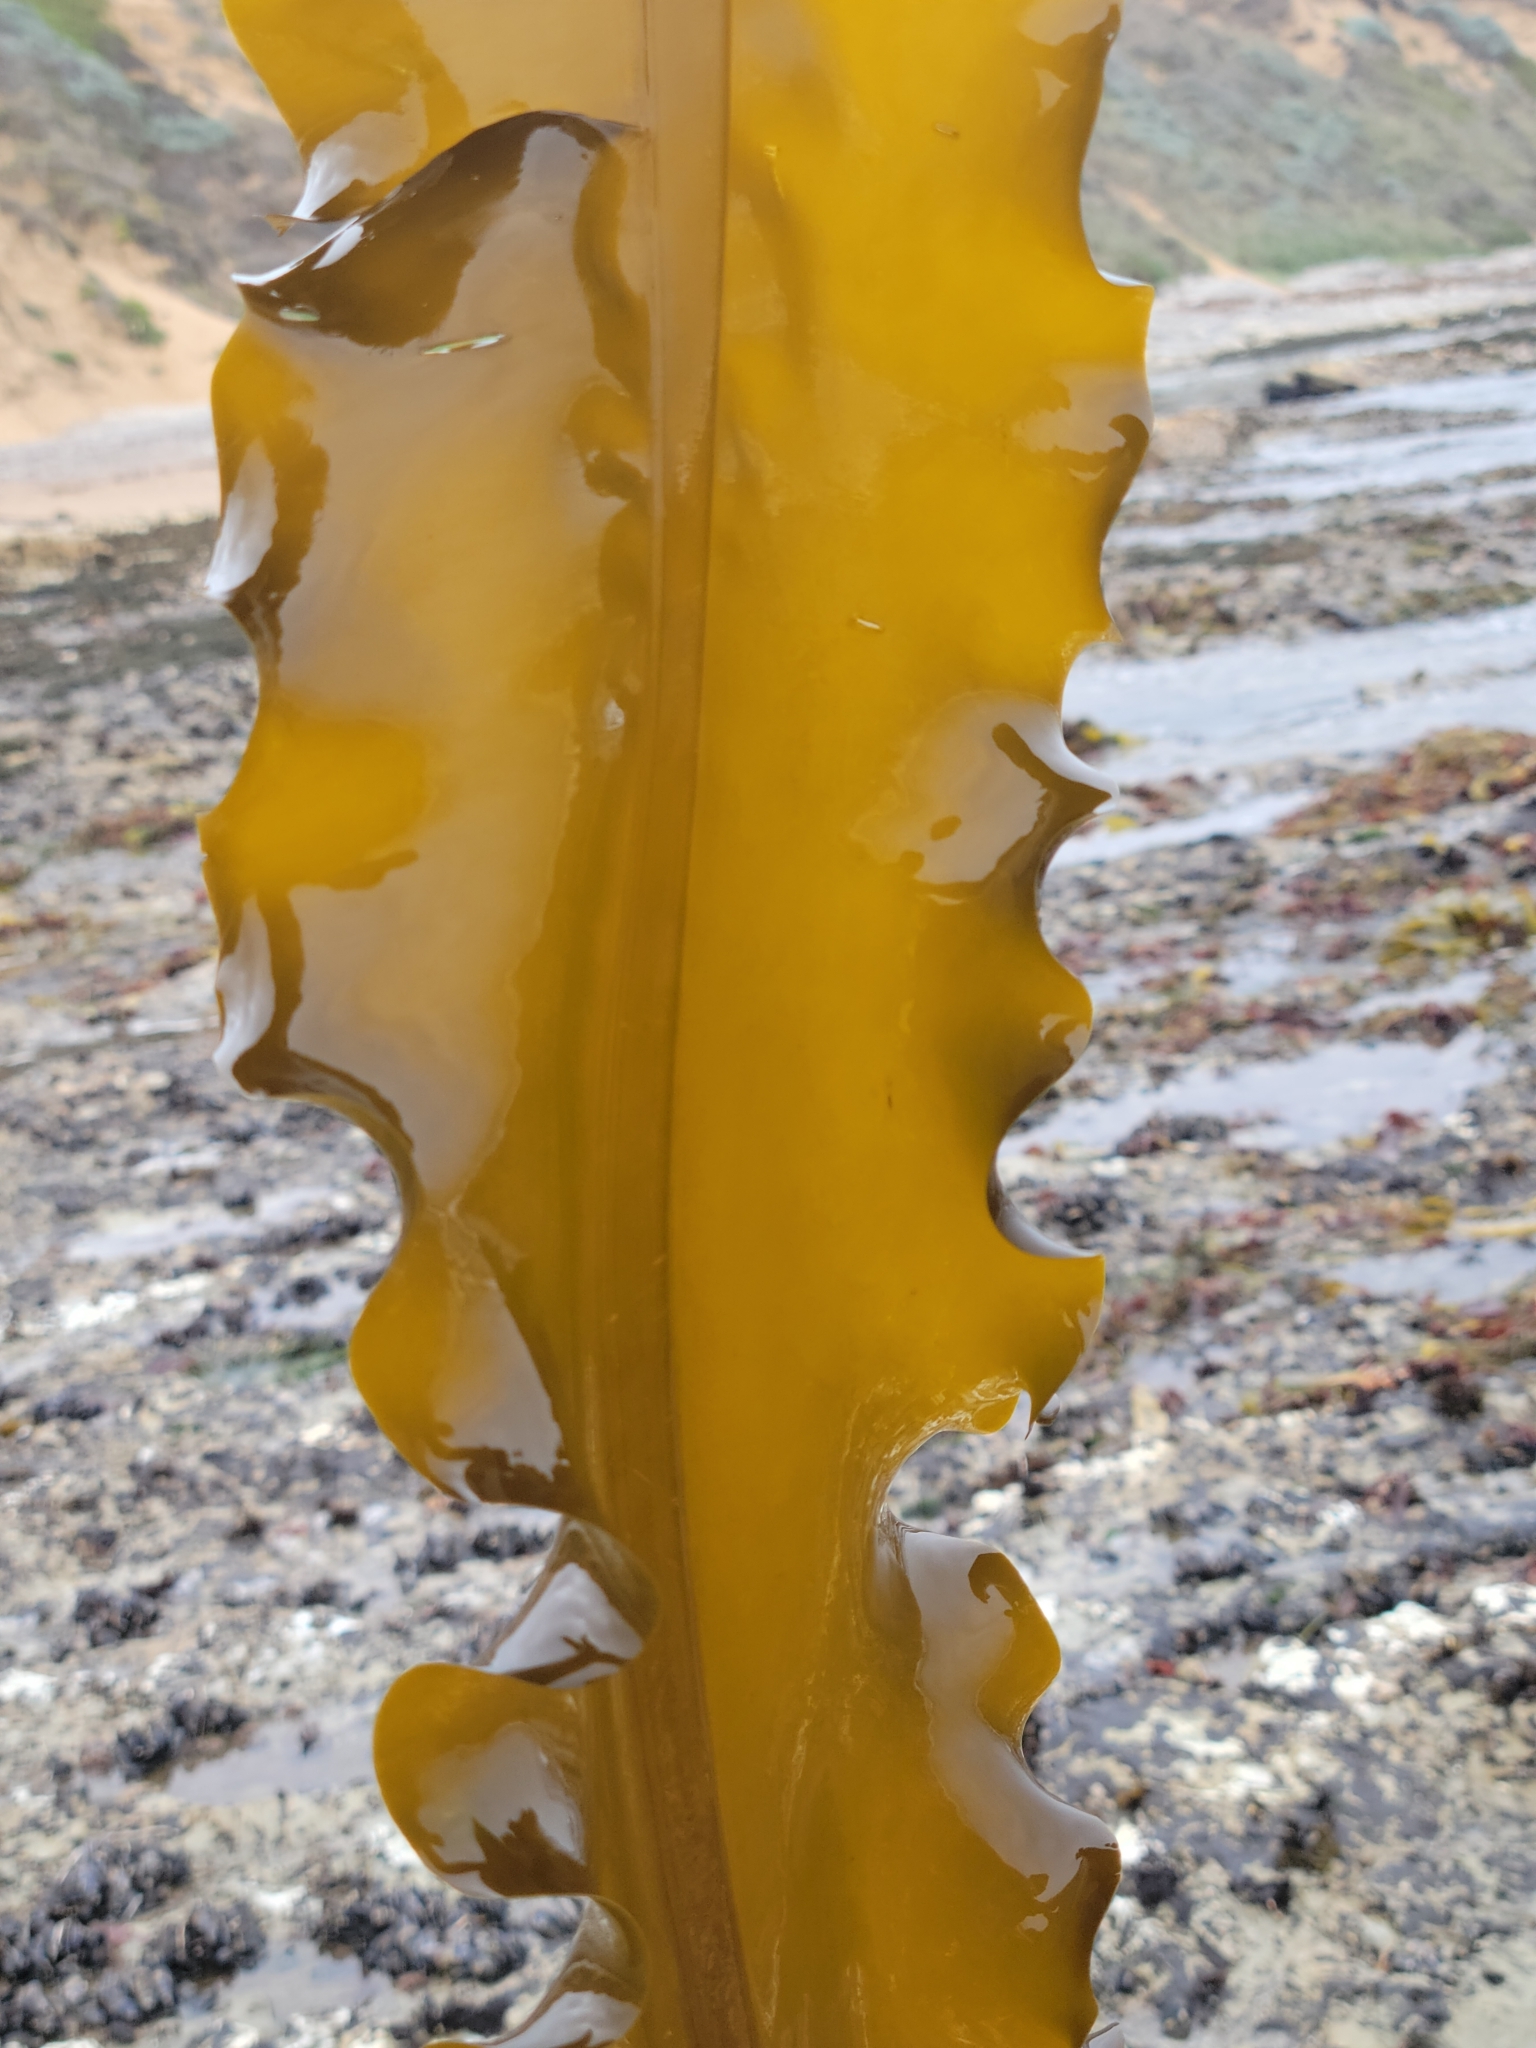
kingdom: Chromista
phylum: Ochrophyta
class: Phaeophyceae
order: Laminariales
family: Alariaceae
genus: Alaria
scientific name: Alaria marginata
